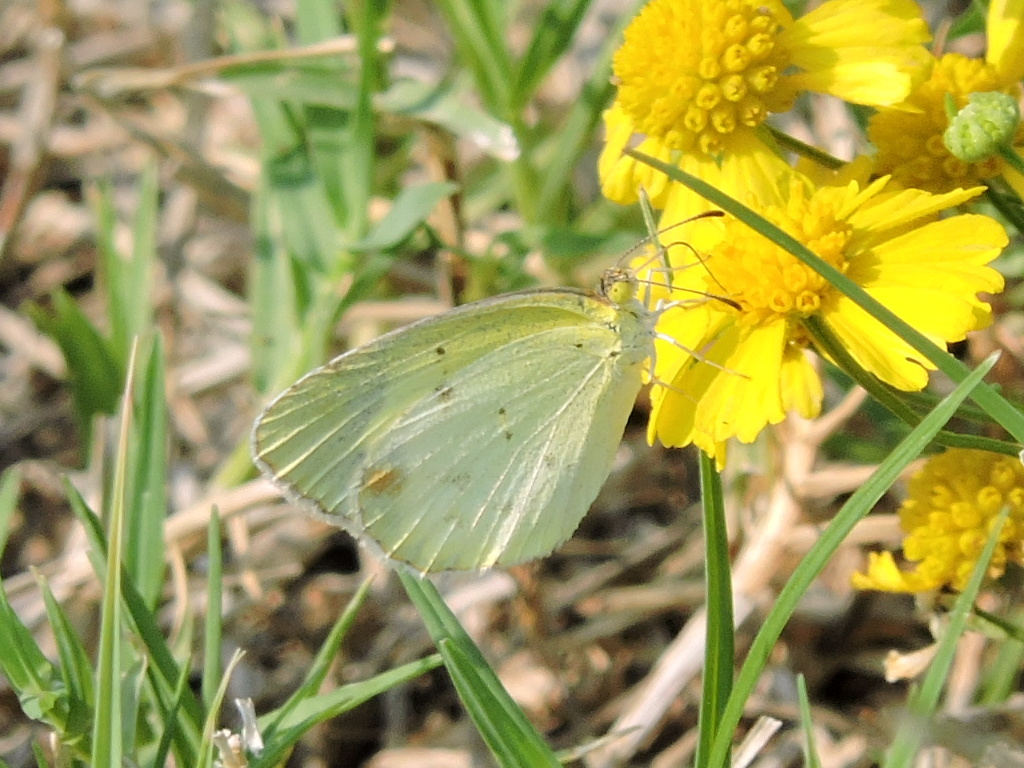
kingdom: Animalia
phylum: Arthropoda
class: Insecta
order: Lepidoptera
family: Pieridae
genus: Pyrisitia
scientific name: Pyrisitia lisa
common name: Little yellow
